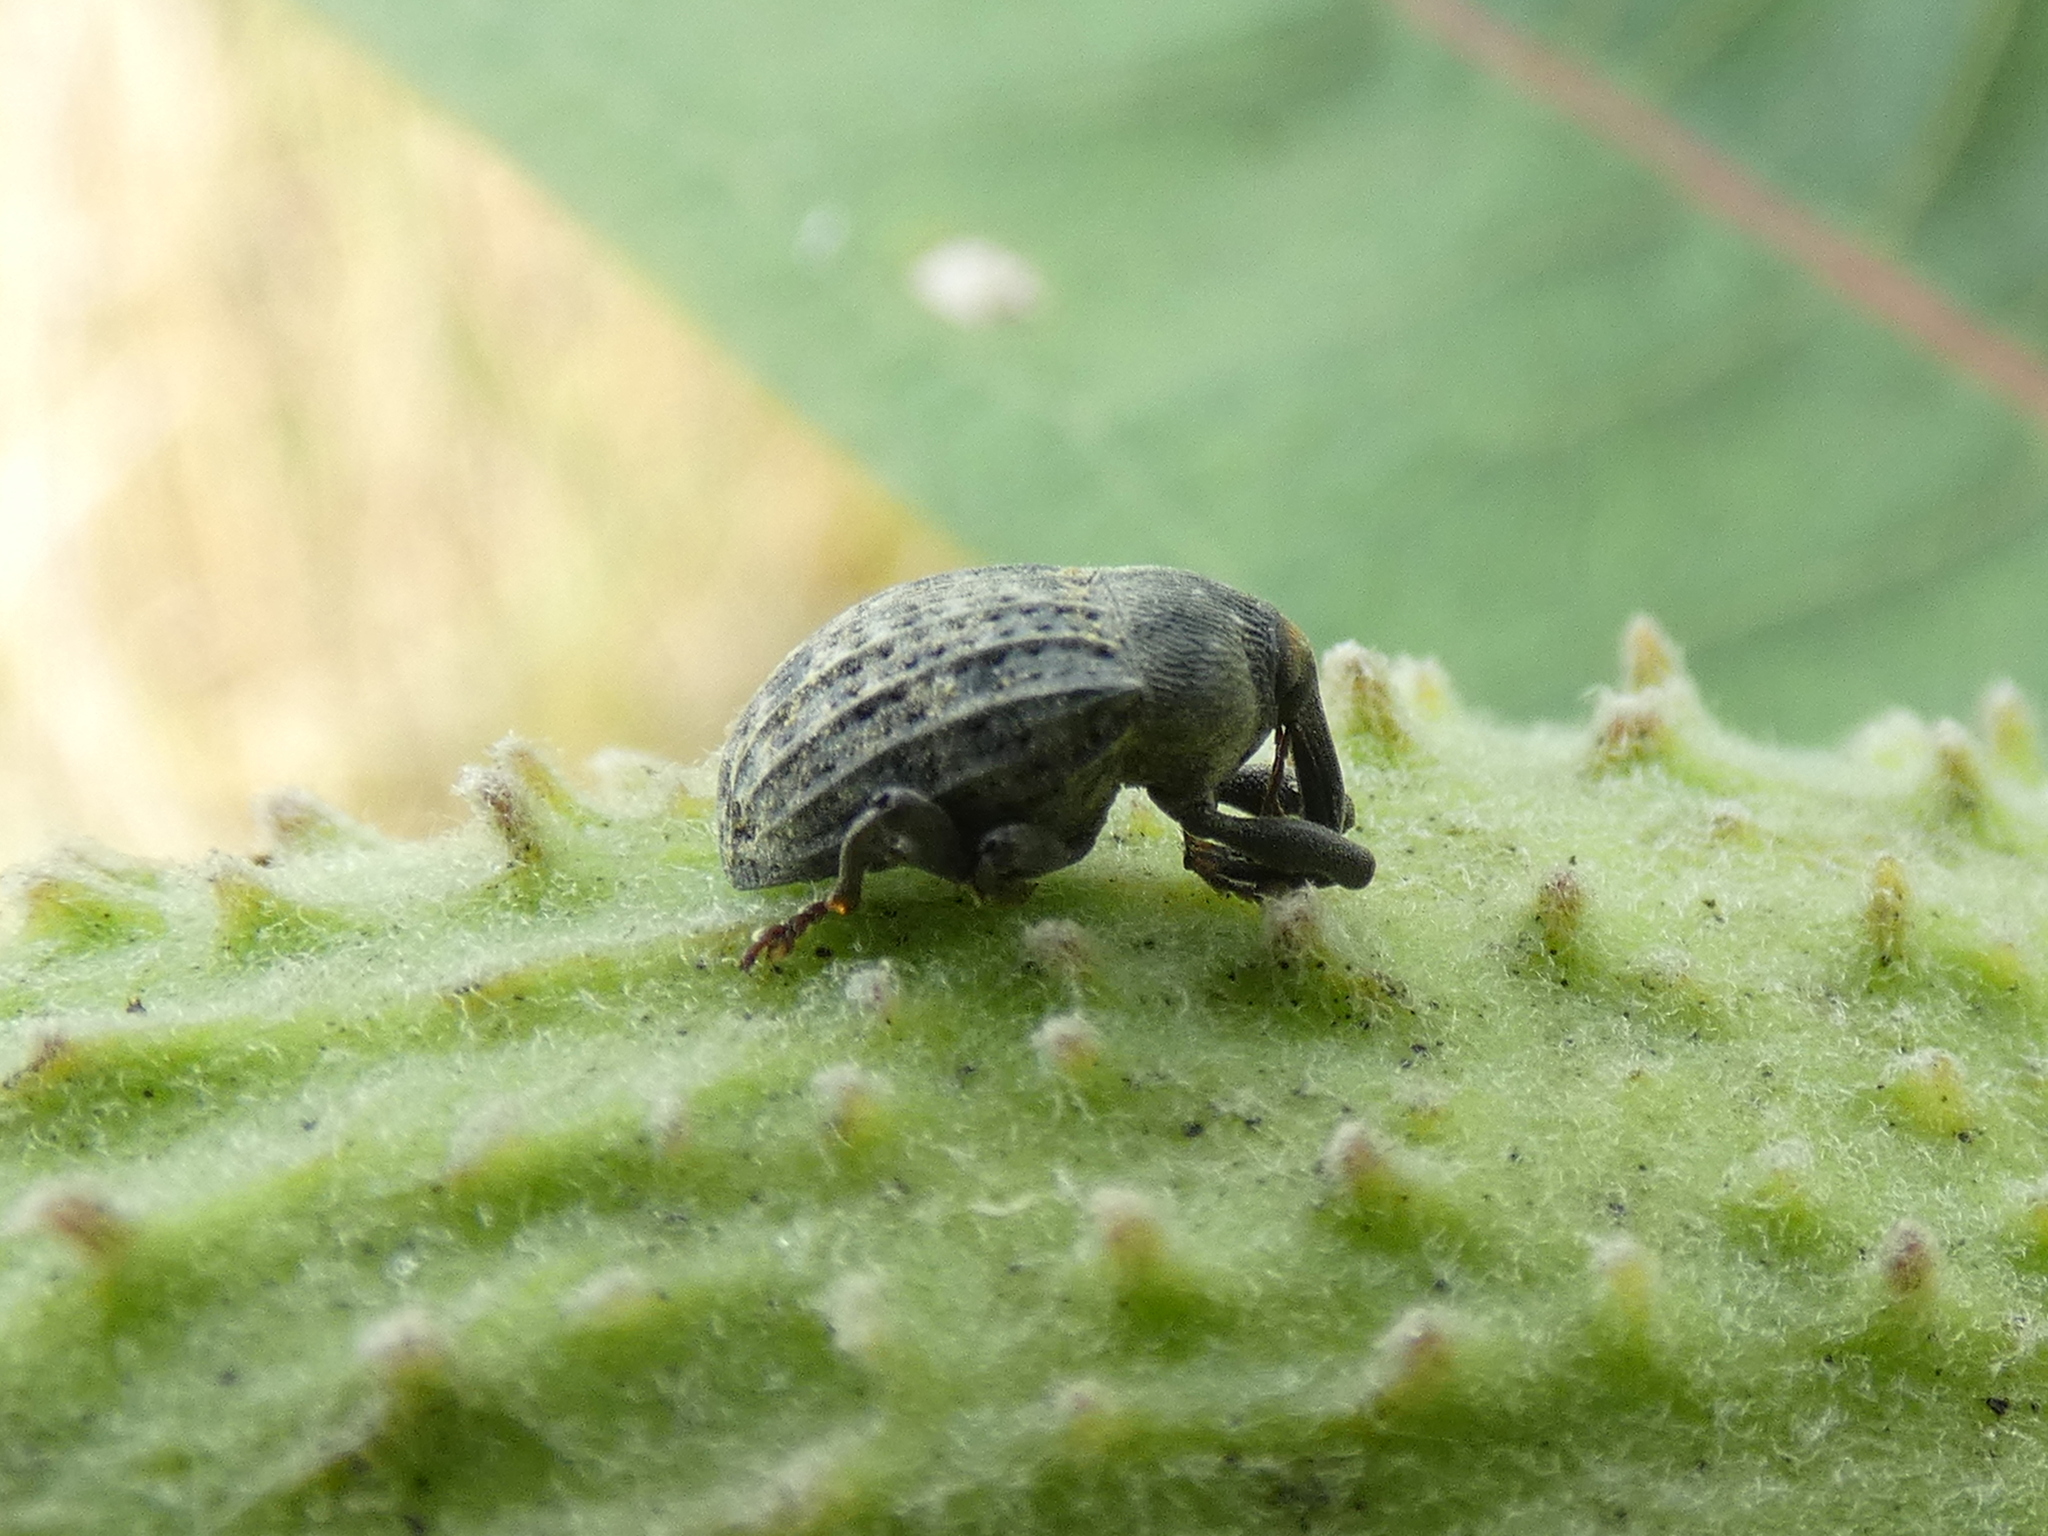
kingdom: Animalia
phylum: Arthropoda
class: Insecta
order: Coleoptera
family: Curculionidae
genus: Rhyssomatus
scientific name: Rhyssomatus lineaticollis
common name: Milkweed stem weevil
